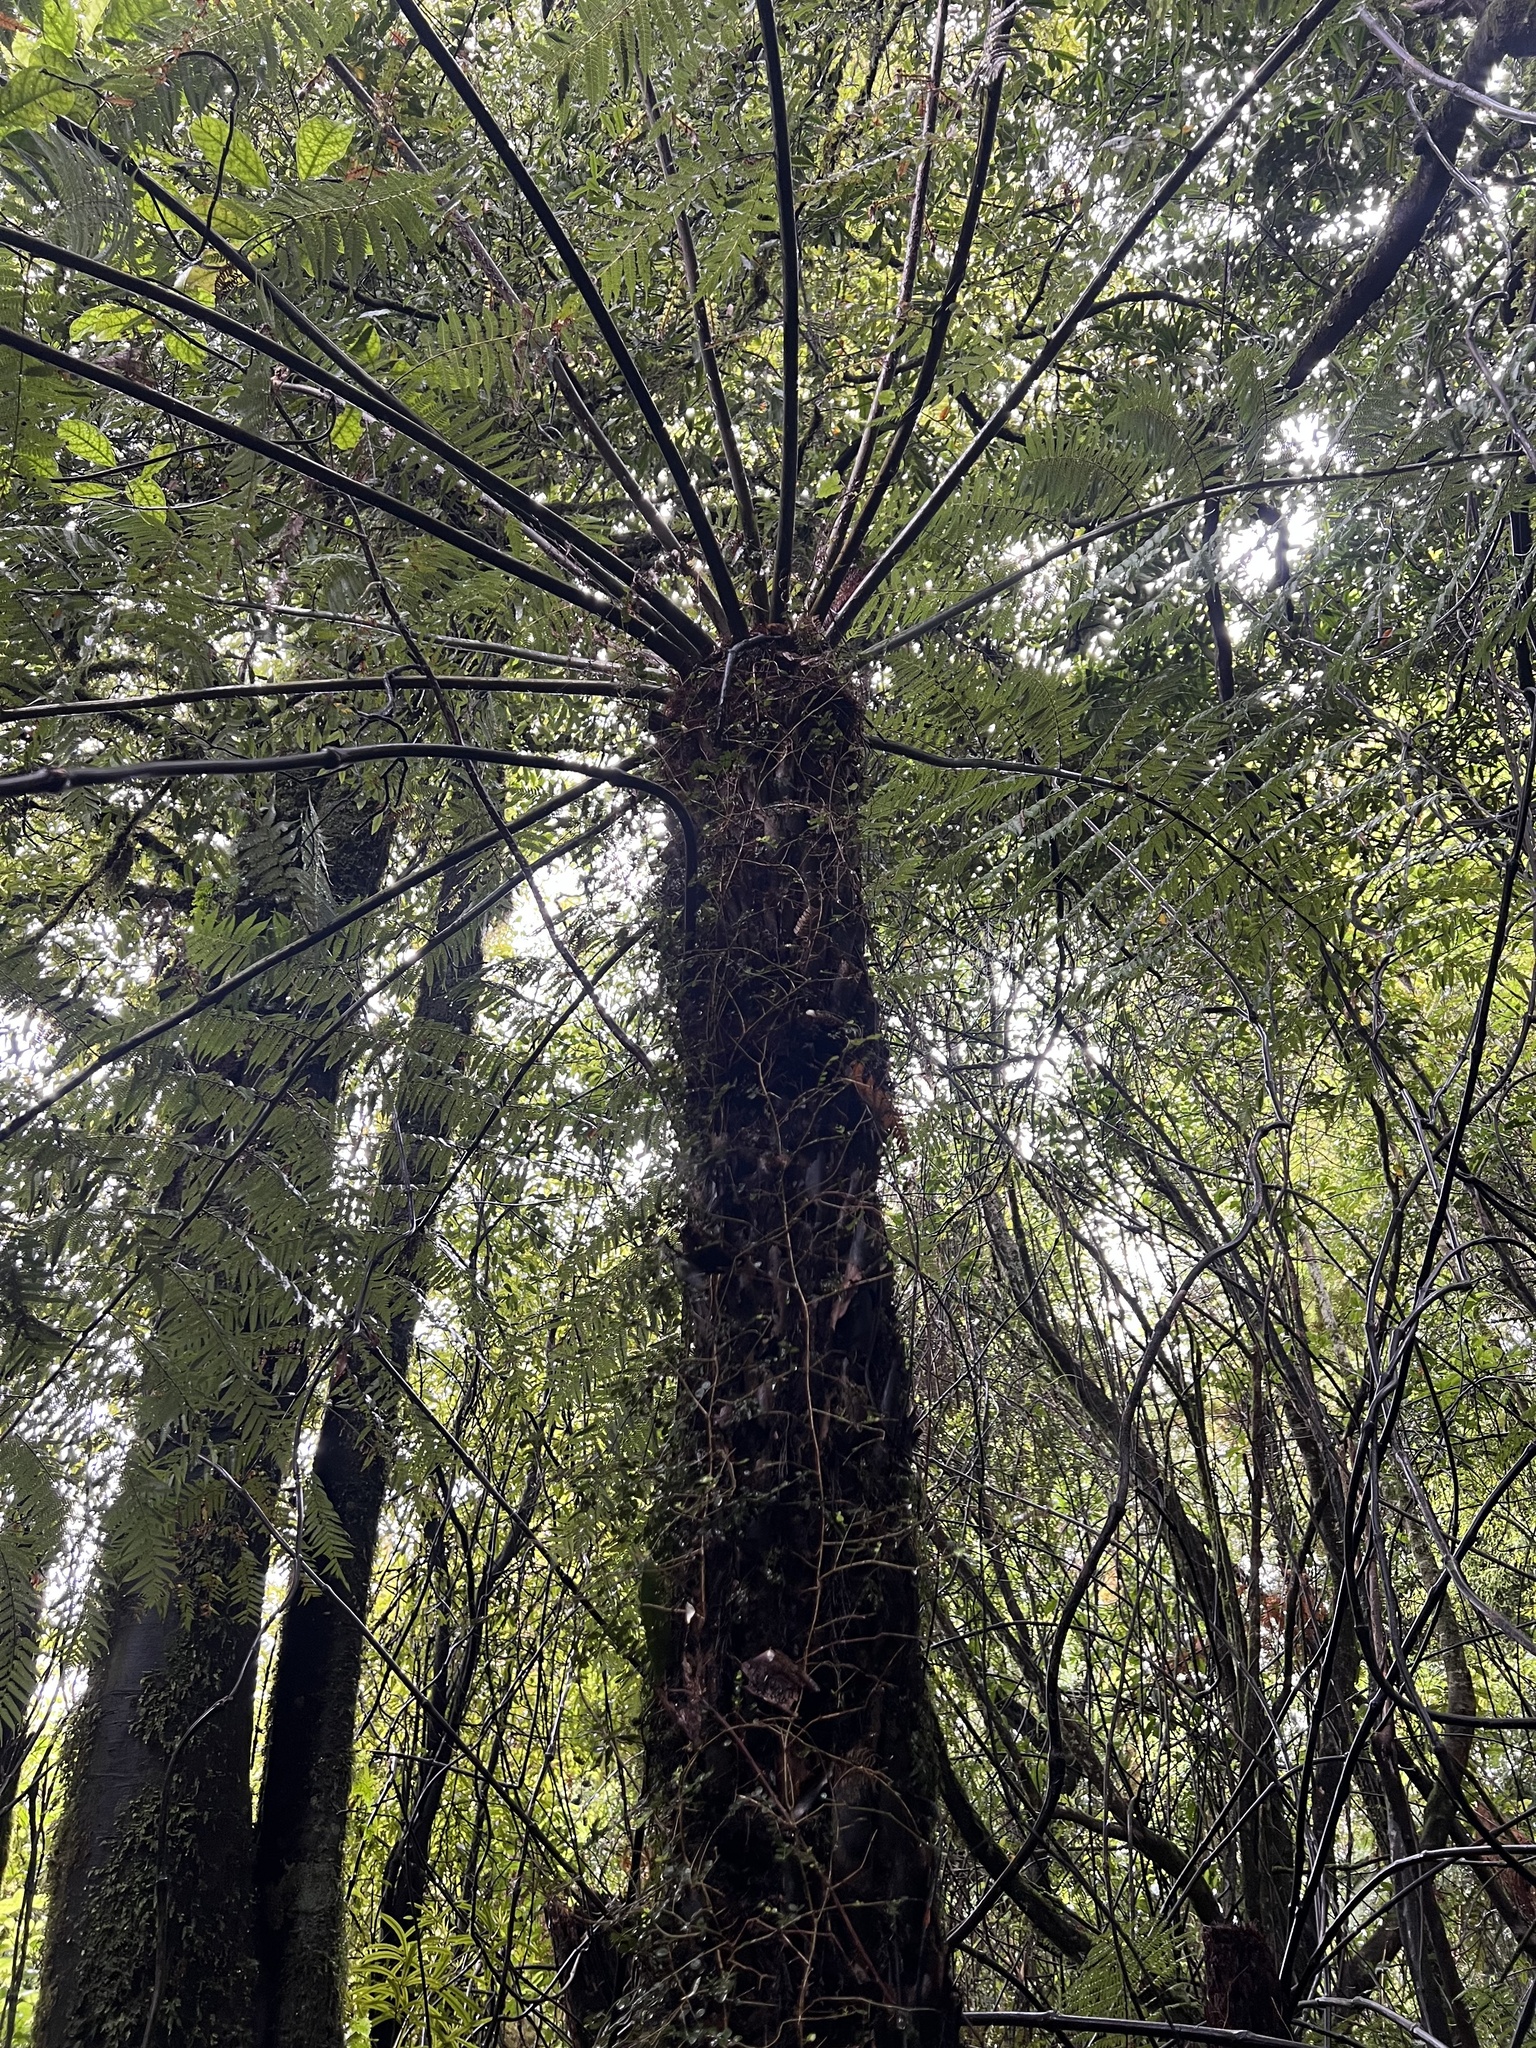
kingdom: Plantae
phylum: Tracheophyta
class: Polypodiopsida
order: Cyatheales
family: Cyatheaceae
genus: Alsophila
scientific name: Alsophila dealbata
